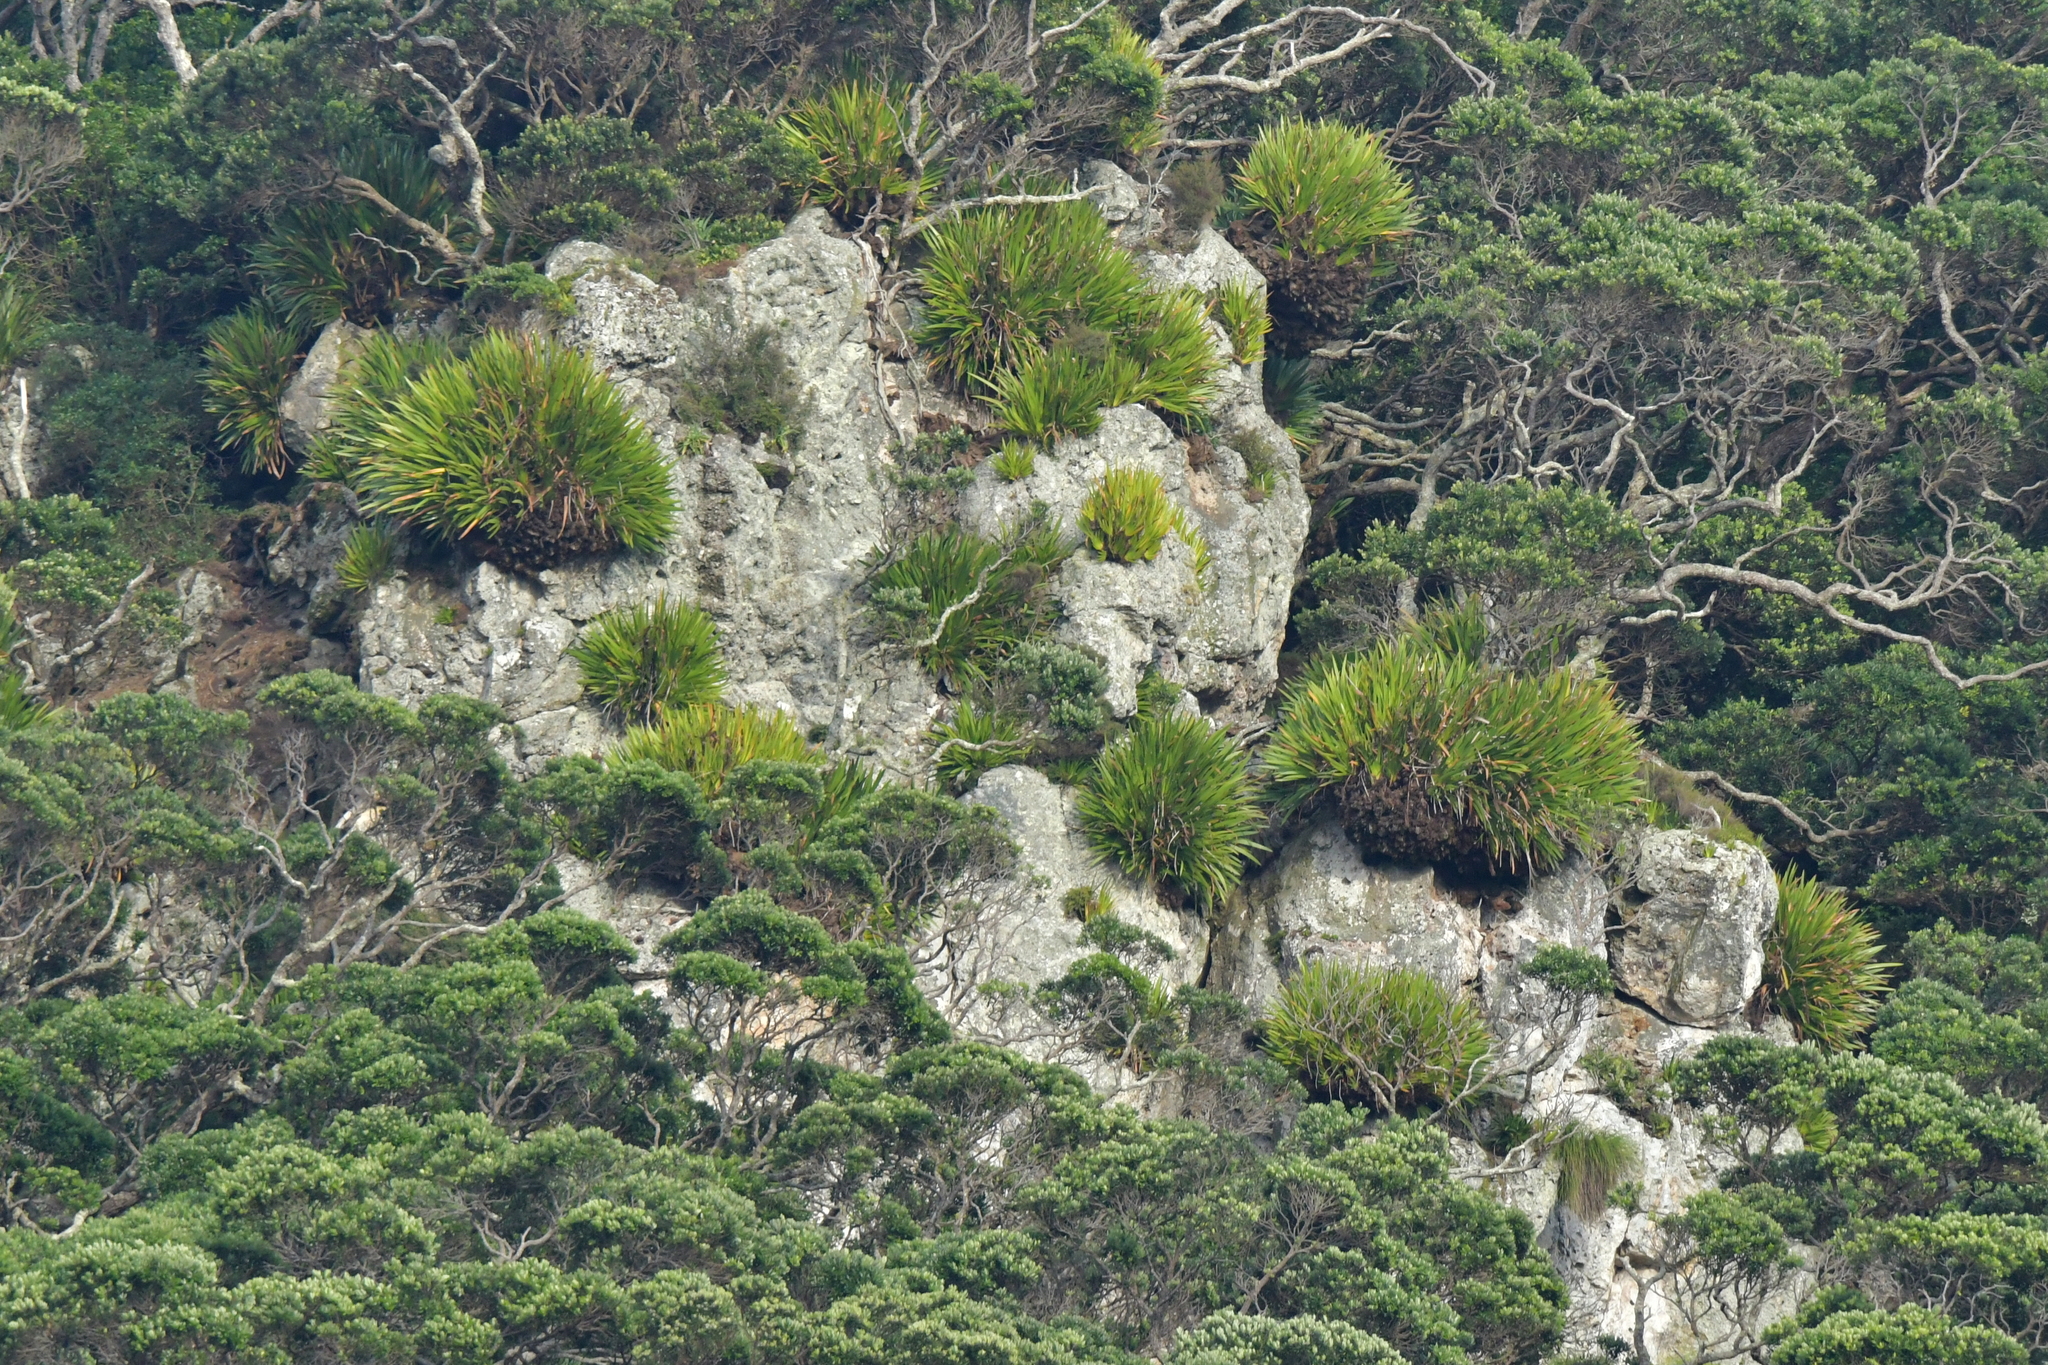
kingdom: Plantae
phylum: Tracheophyta
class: Liliopsida
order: Asparagales
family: Xeronemataceae
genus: Xeronema
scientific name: Xeronema callistemon
